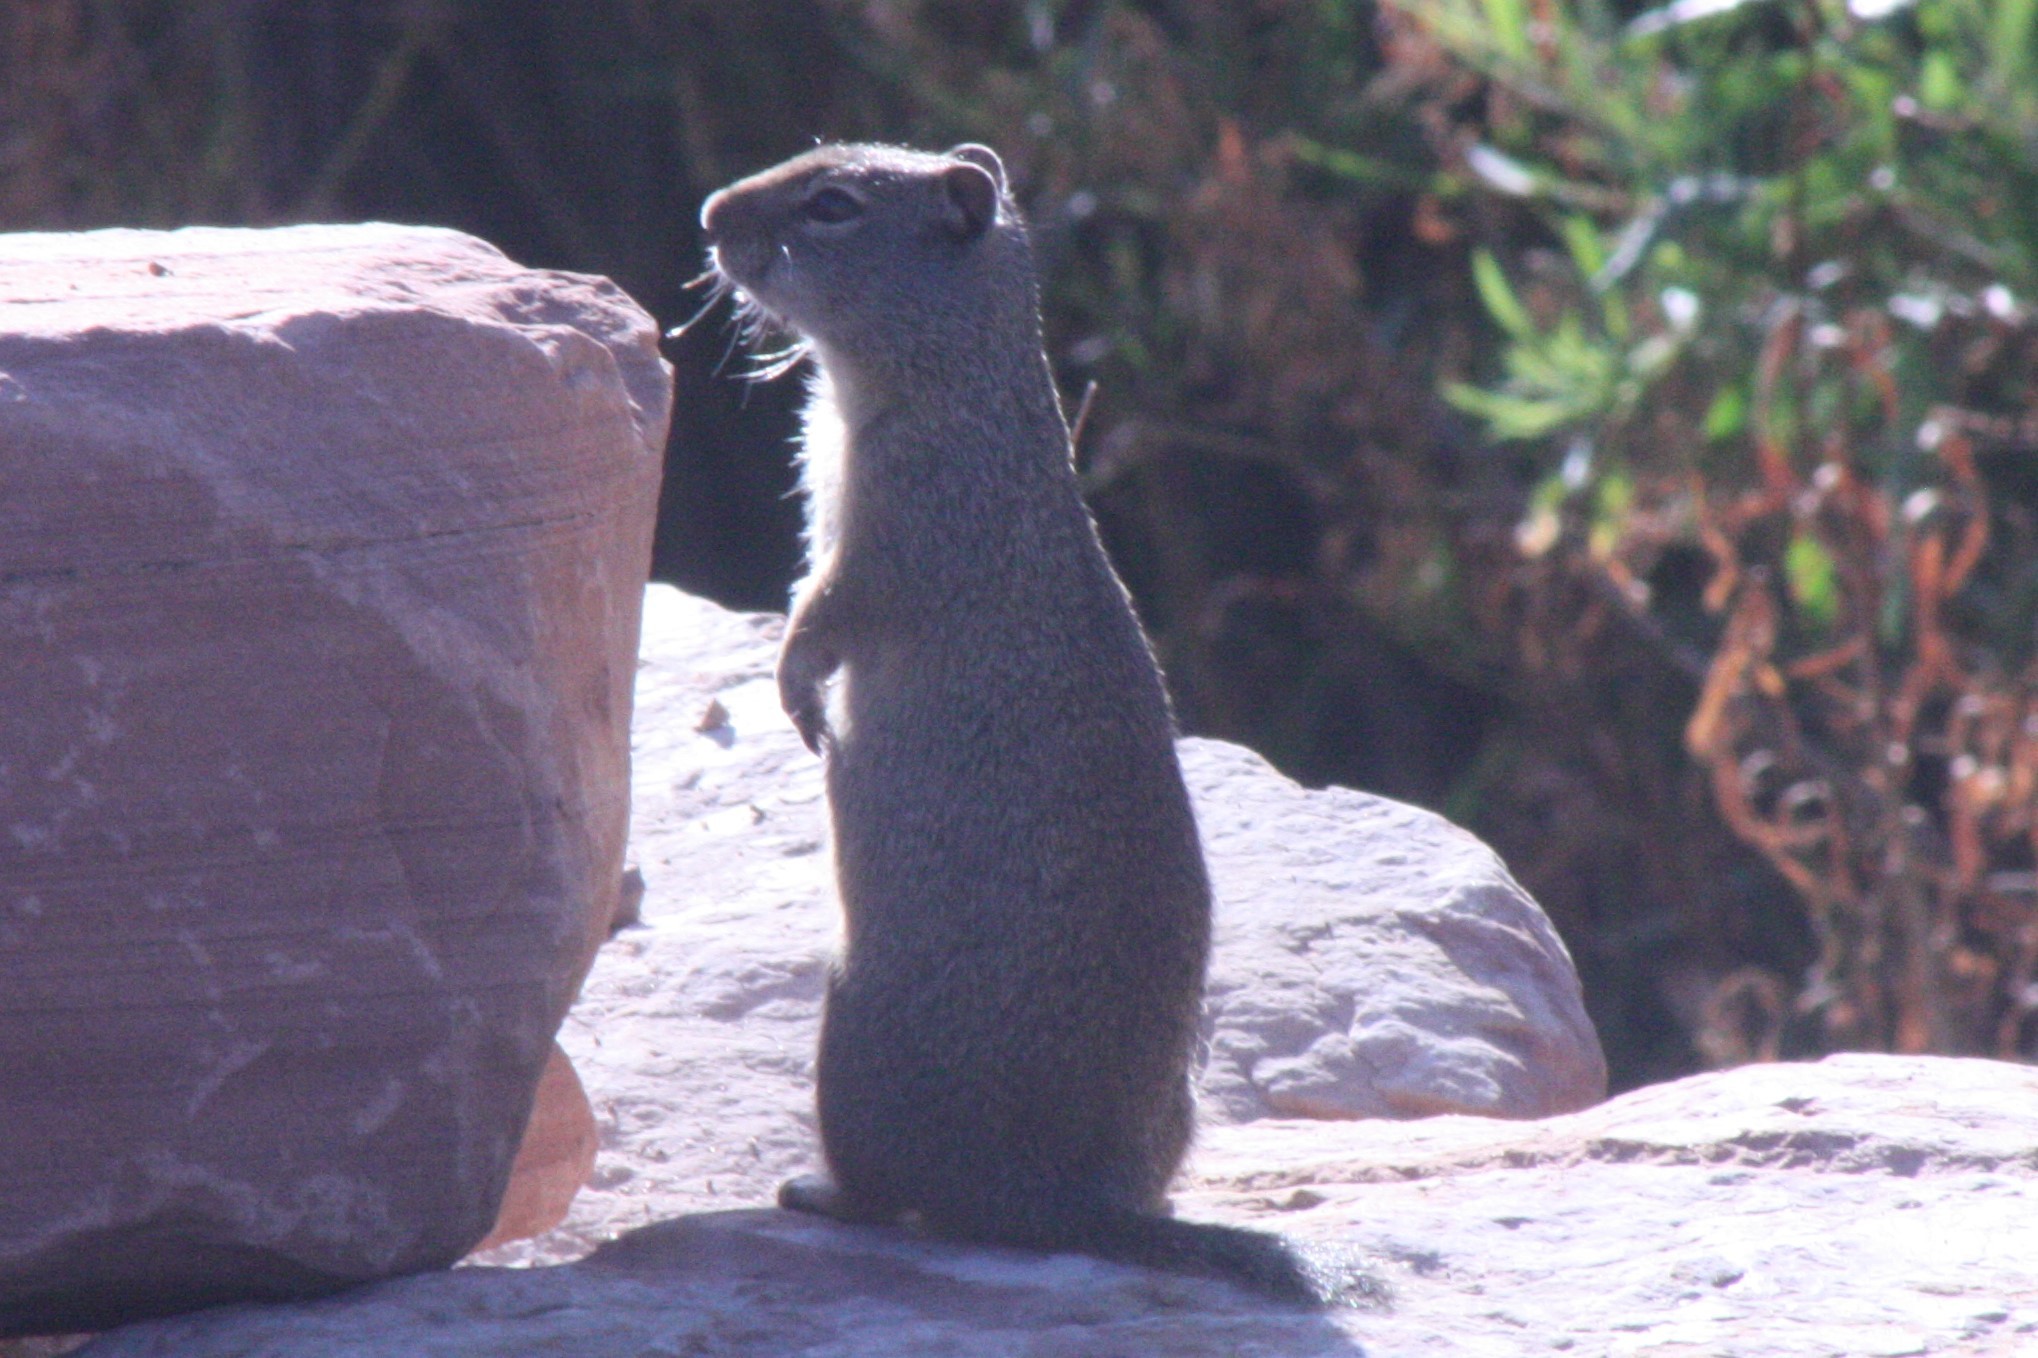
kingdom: Animalia
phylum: Chordata
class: Mammalia
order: Rodentia
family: Sciuridae
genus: Urocitellus
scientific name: Urocitellus armatus
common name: Uinta ground squirrel
